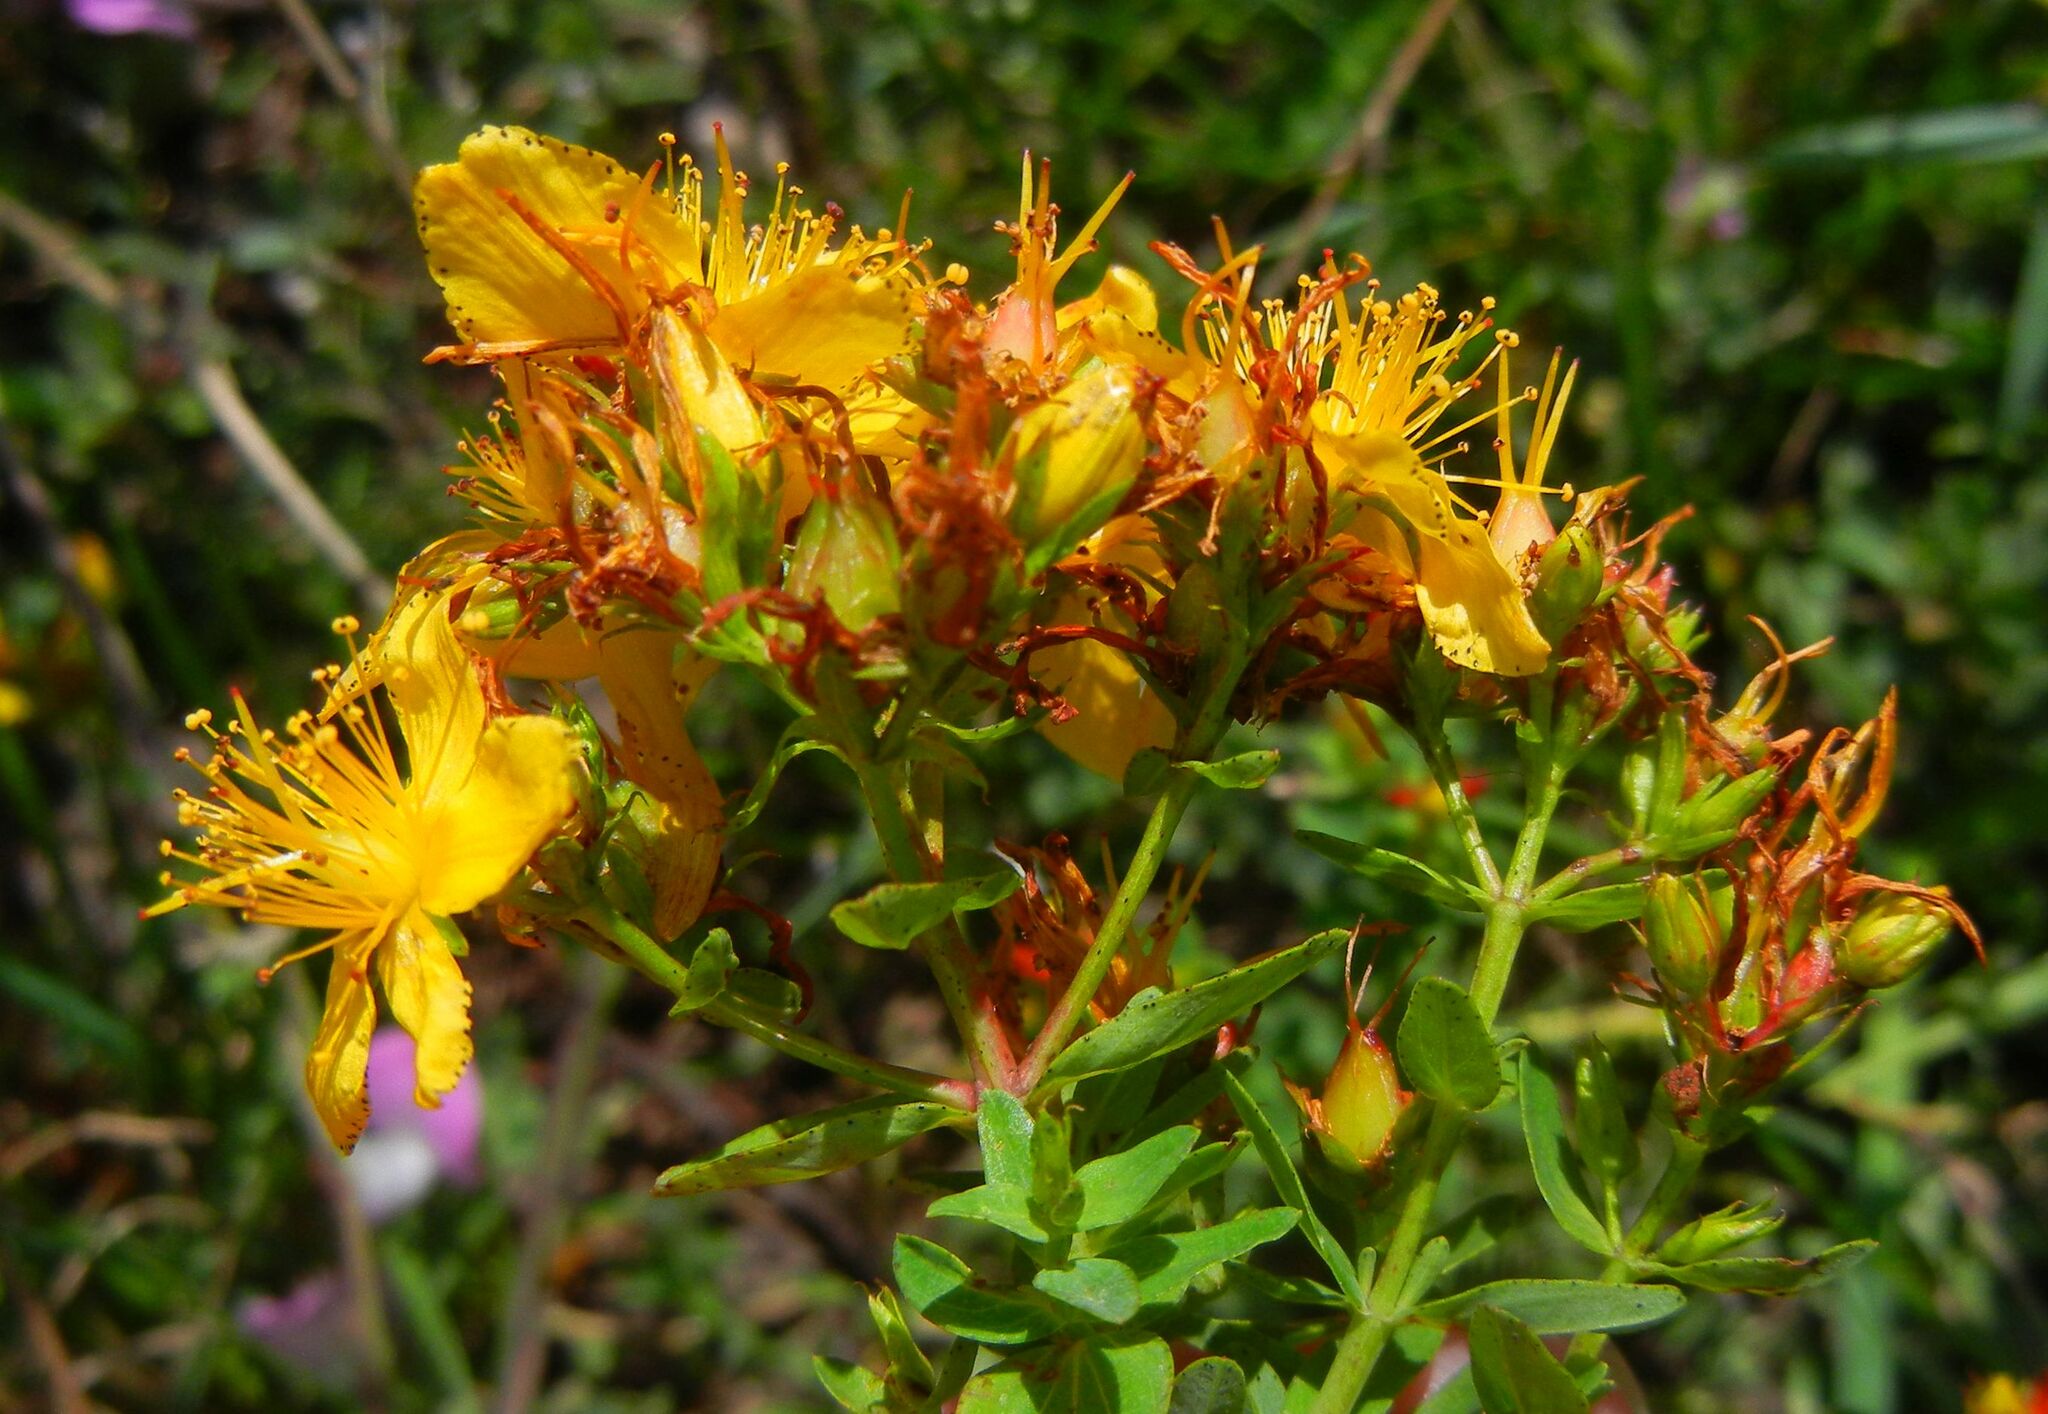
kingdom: Plantae
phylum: Tracheophyta
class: Magnoliopsida
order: Malpighiales
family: Hypericaceae
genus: Hypericum
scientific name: Hypericum perforatum
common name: Common st. johnswort
